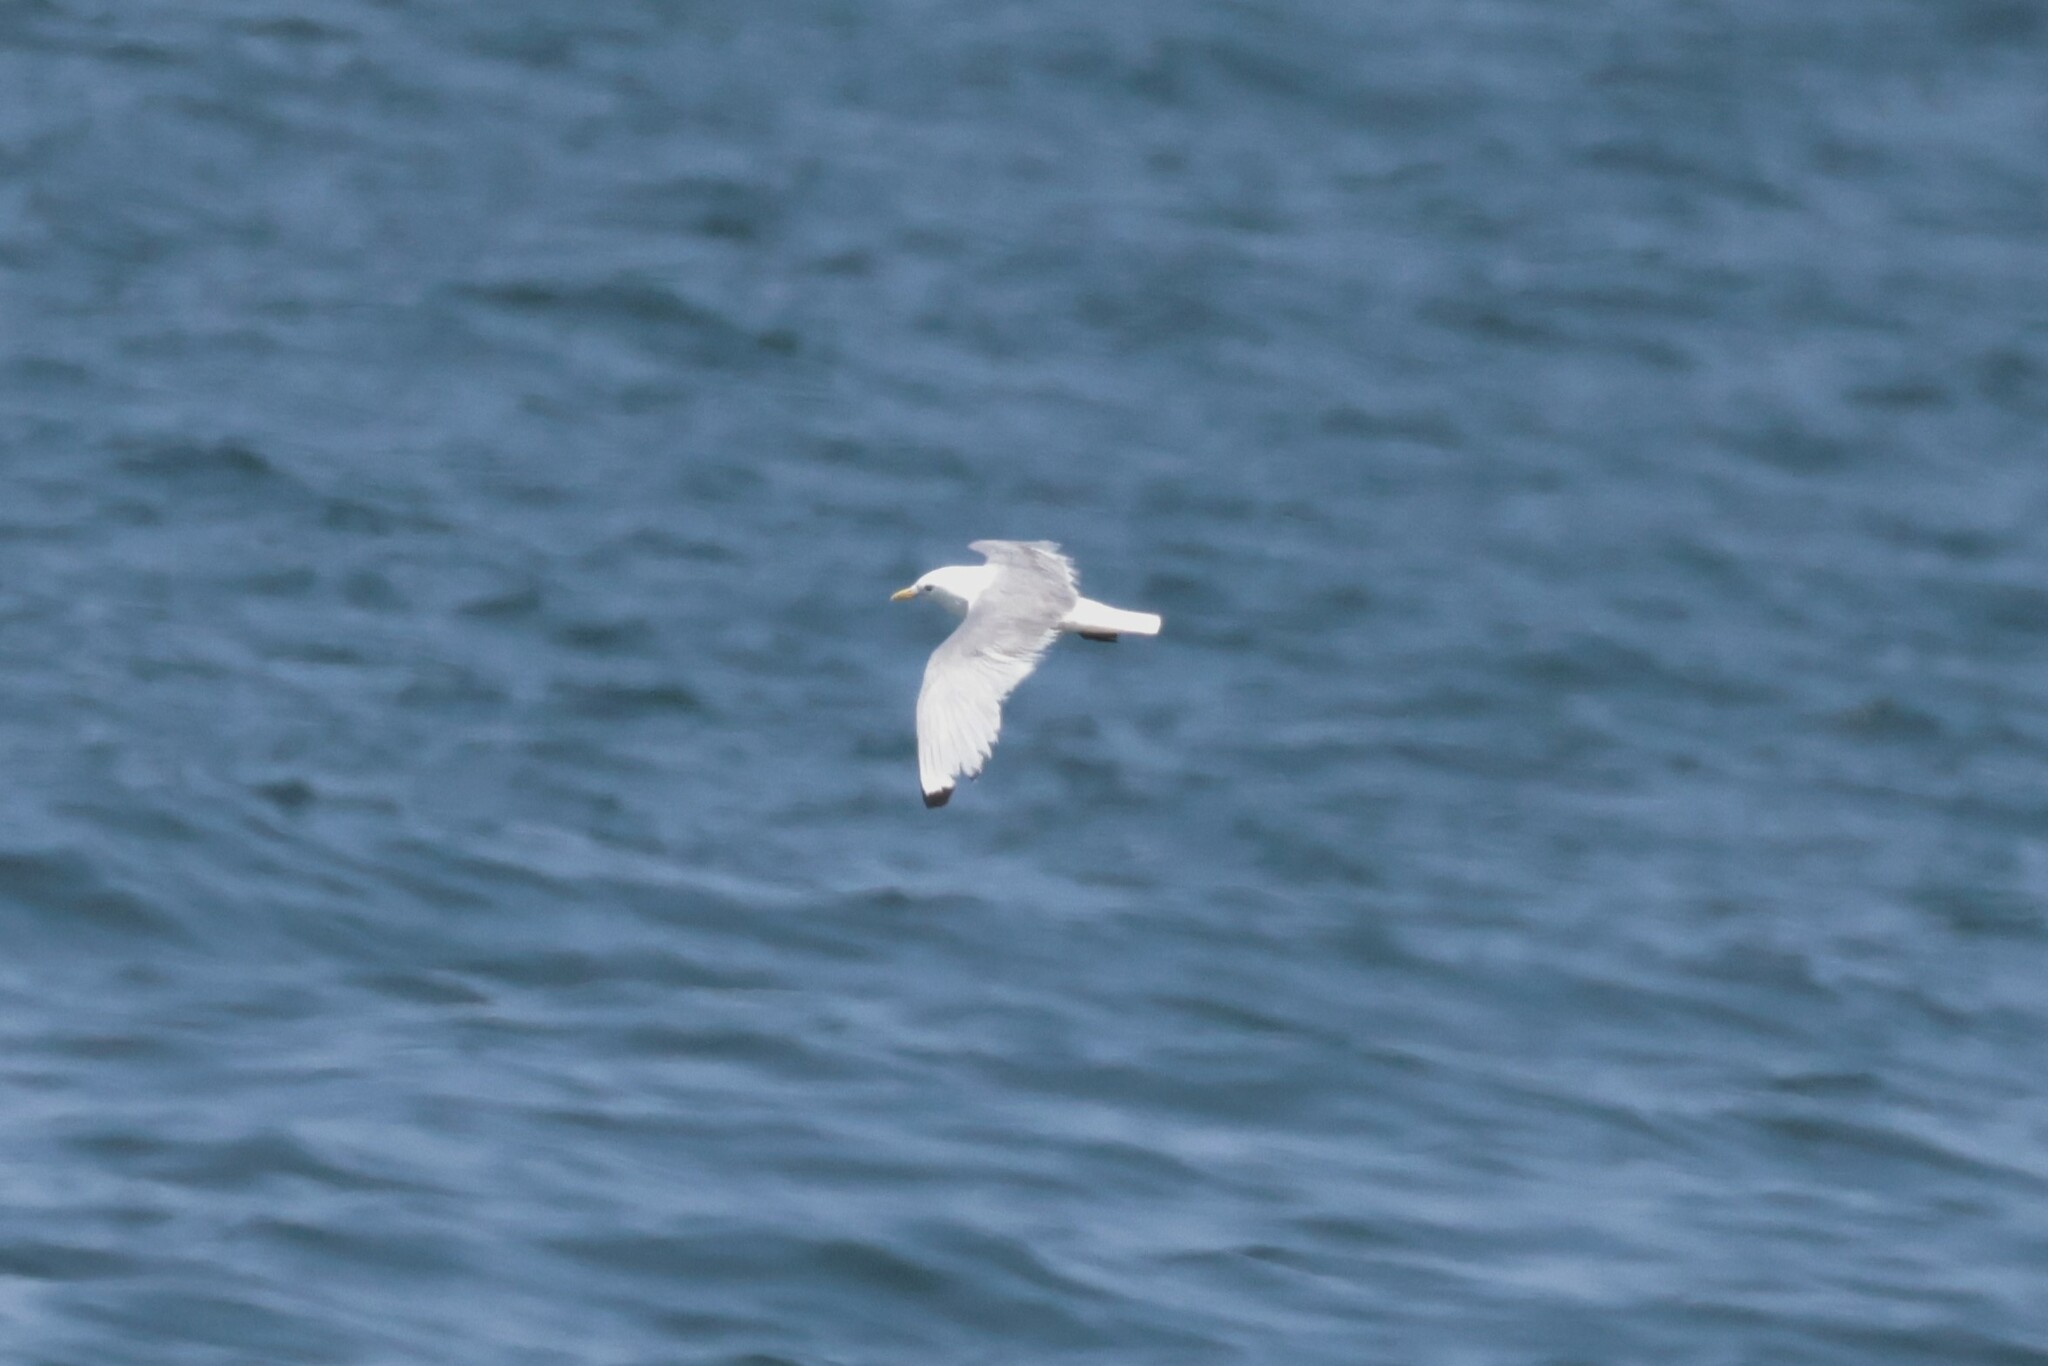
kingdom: Animalia
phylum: Chordata
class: Aves
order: Charadriiformes
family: Laridae
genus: Rissa
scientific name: Rissa tridactyla
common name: Black-legged kittiwake
